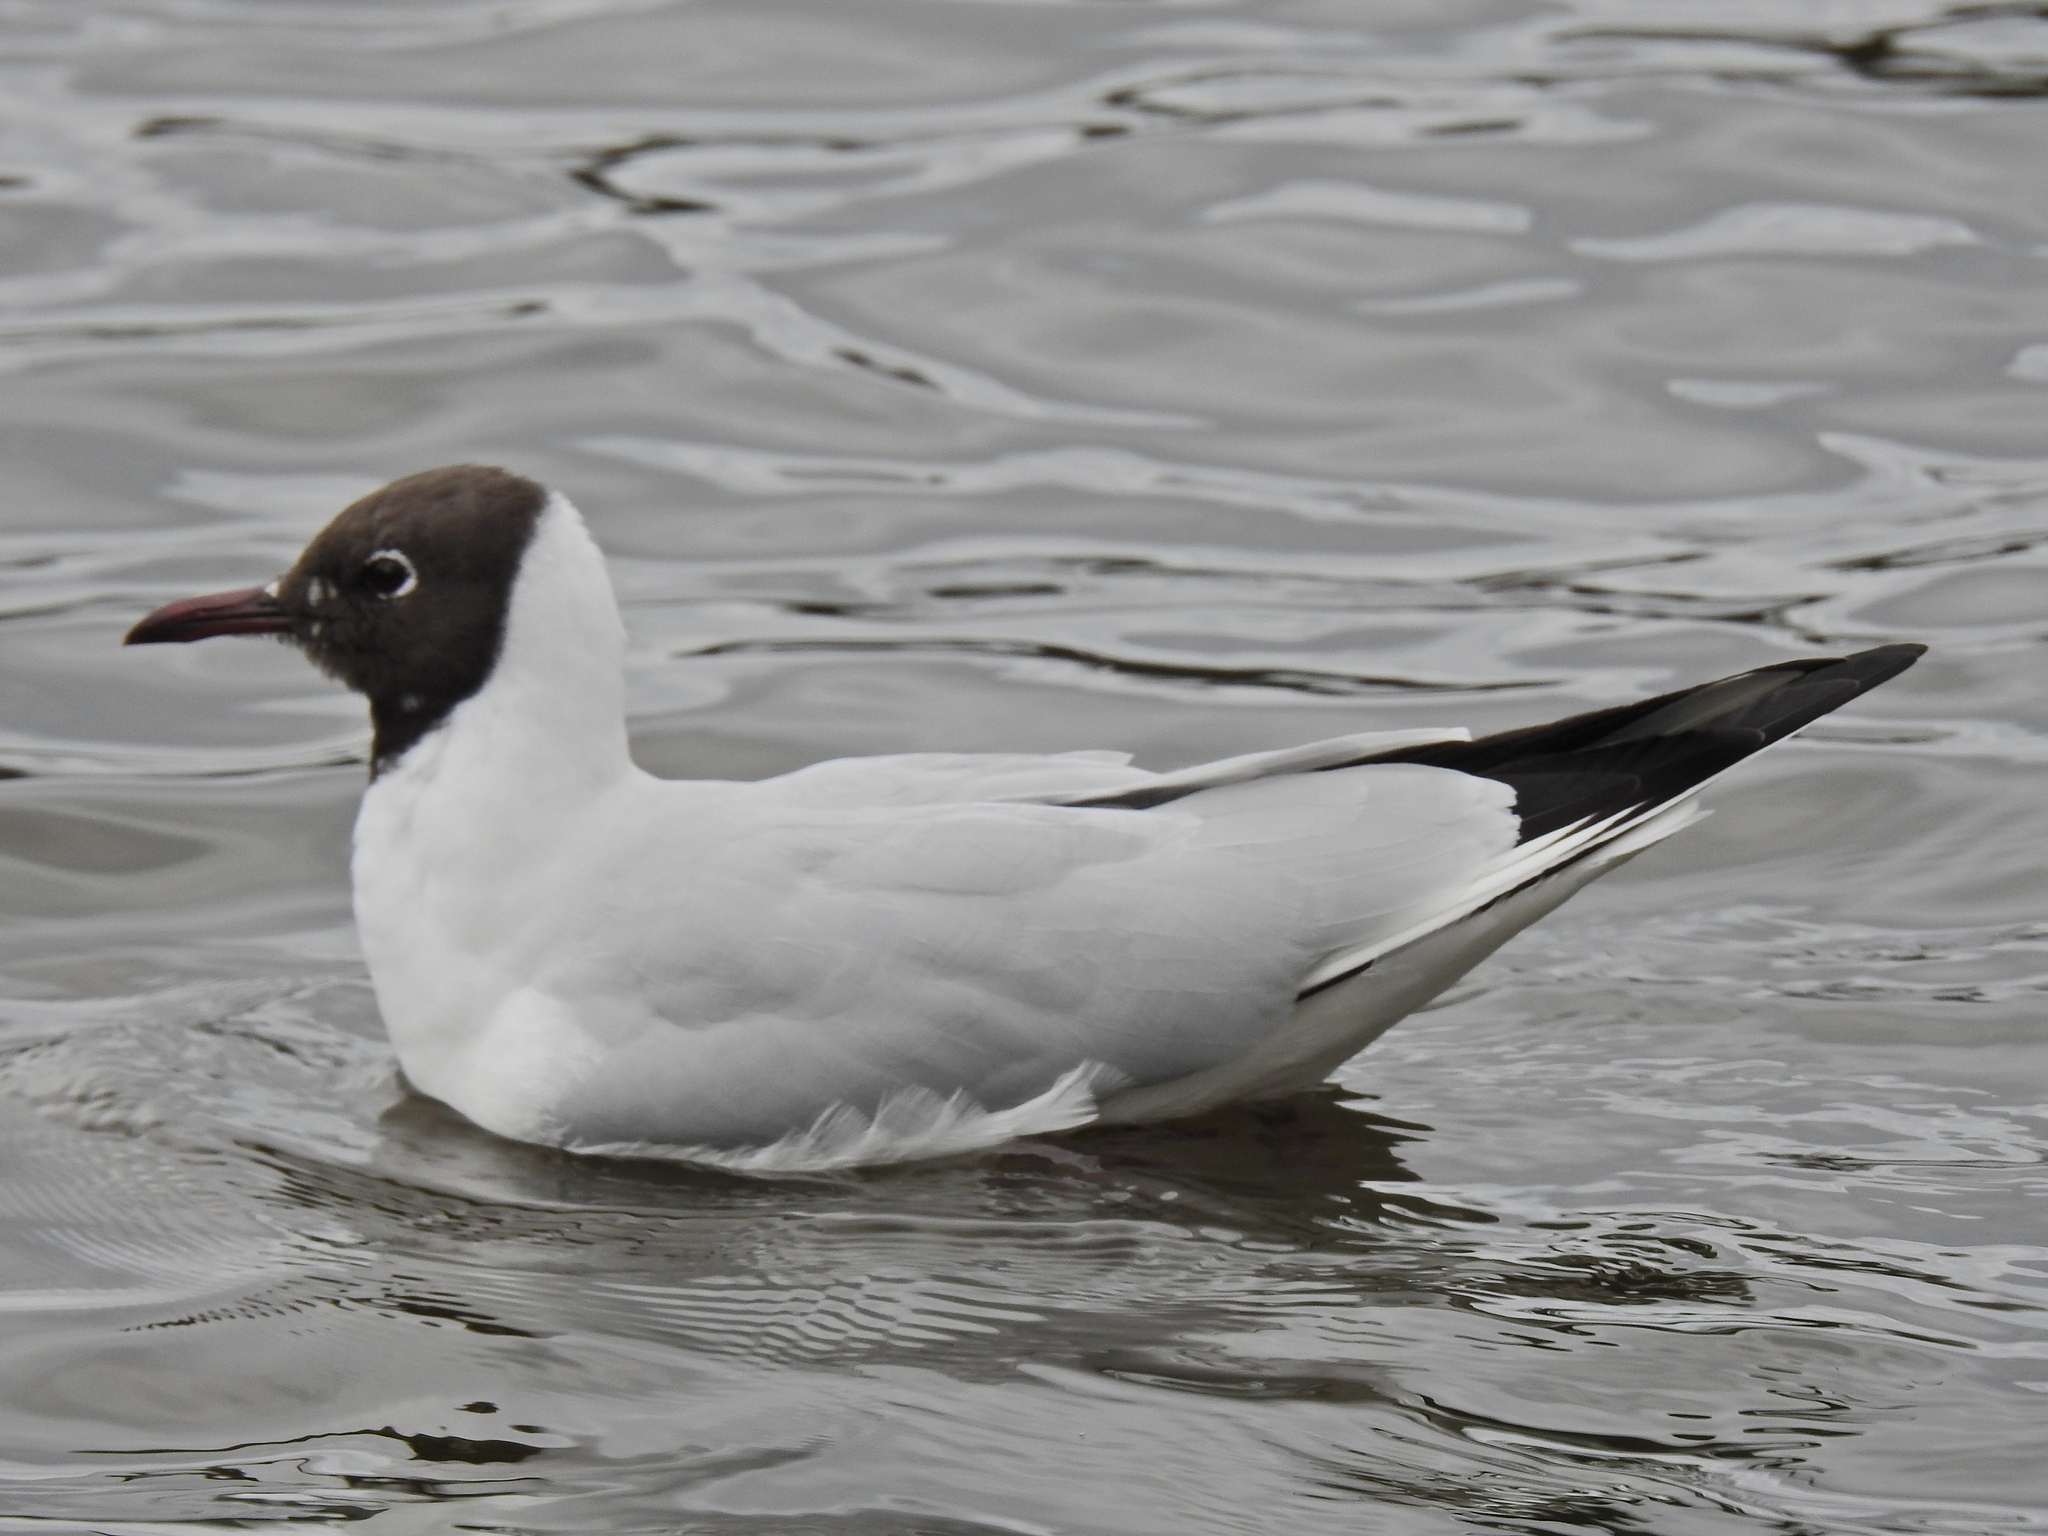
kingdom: Animalia
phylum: Chordata
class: Aves
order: Charadriiformes
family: Laridae
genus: Chroicocephalus
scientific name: Chroicocephalus ridibundus
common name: Black-headed gull
